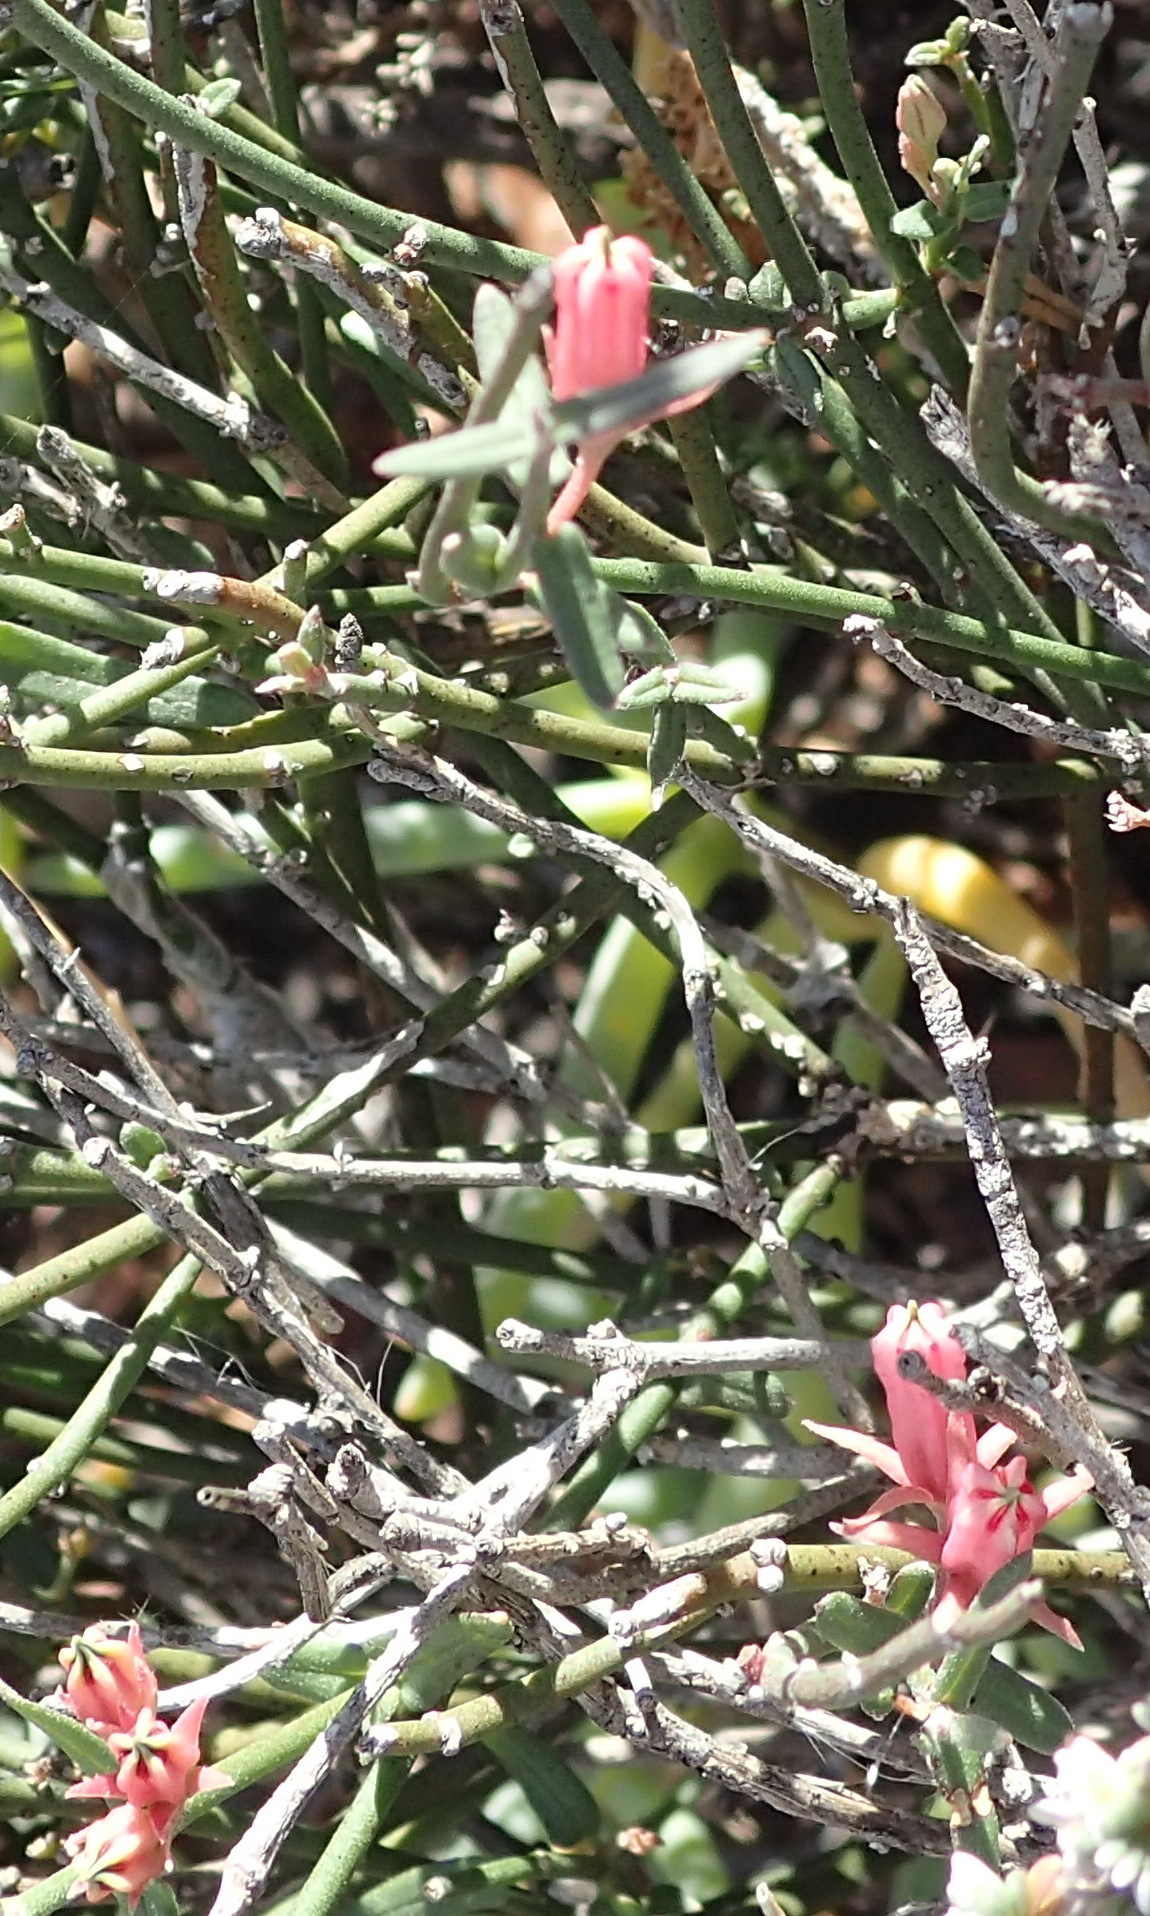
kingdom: Plantae
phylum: Tracheophyta
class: Magnoliopsida
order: Gentianales
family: Apocynaceae
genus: Microloma
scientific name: Microloma sagittatum
